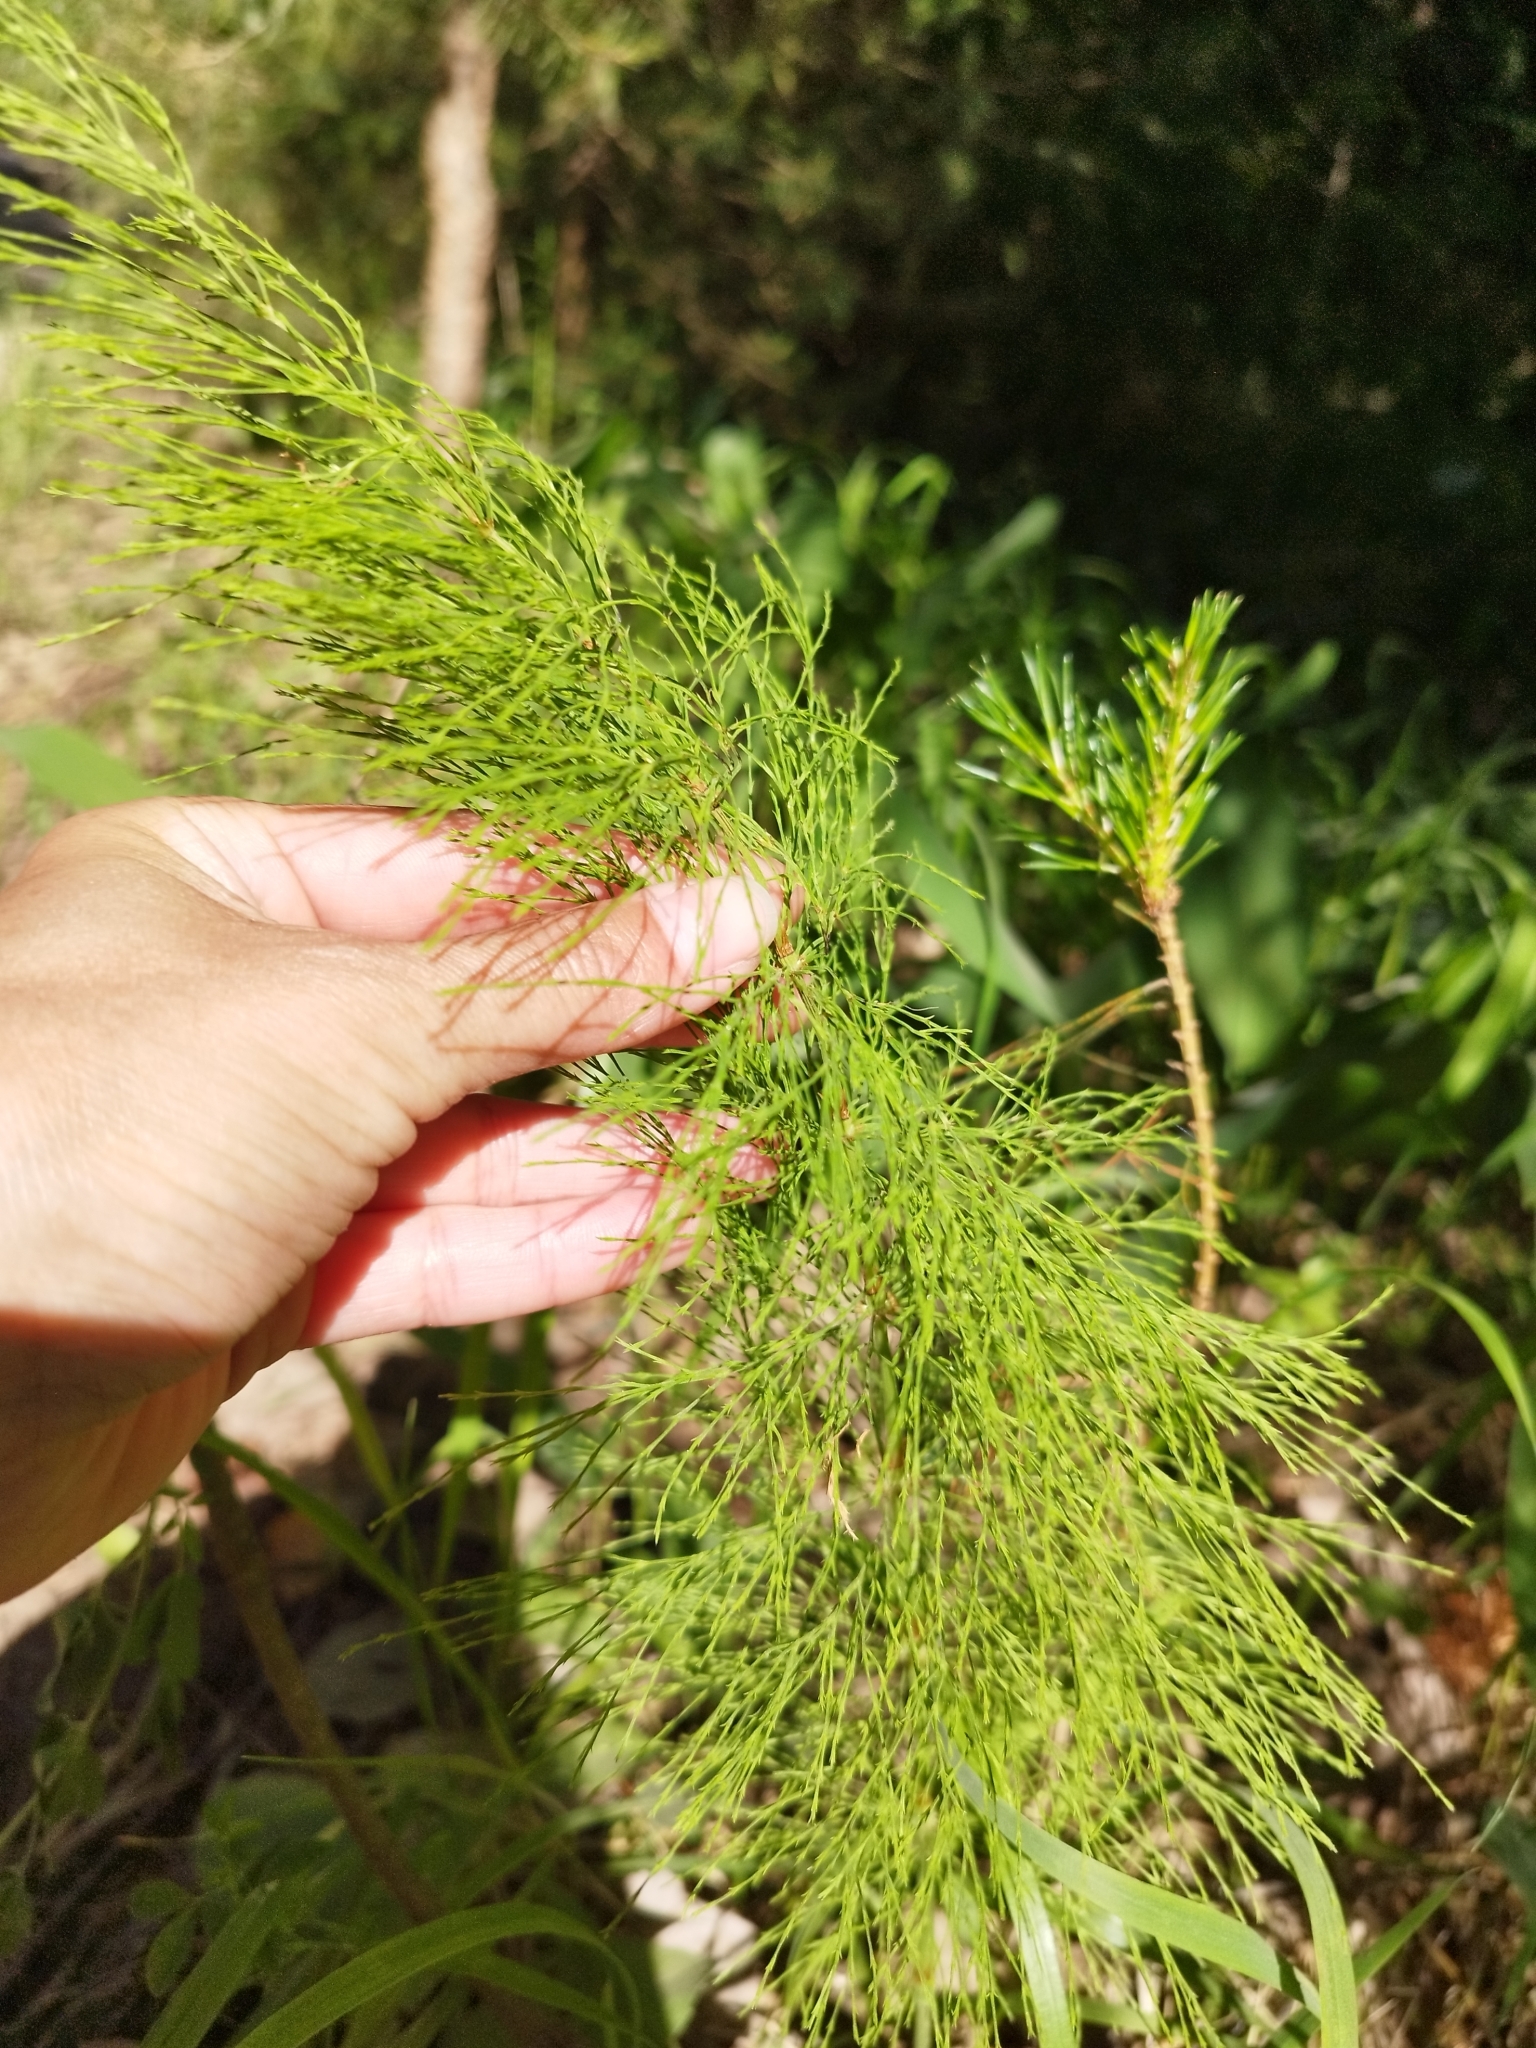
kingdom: Plantae
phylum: Tracheophyta
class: Polypodiopsida
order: Equisetales
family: Equisetaceae
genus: Equisetum
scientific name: Equisetum sylvaticum
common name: Wood horsetail
